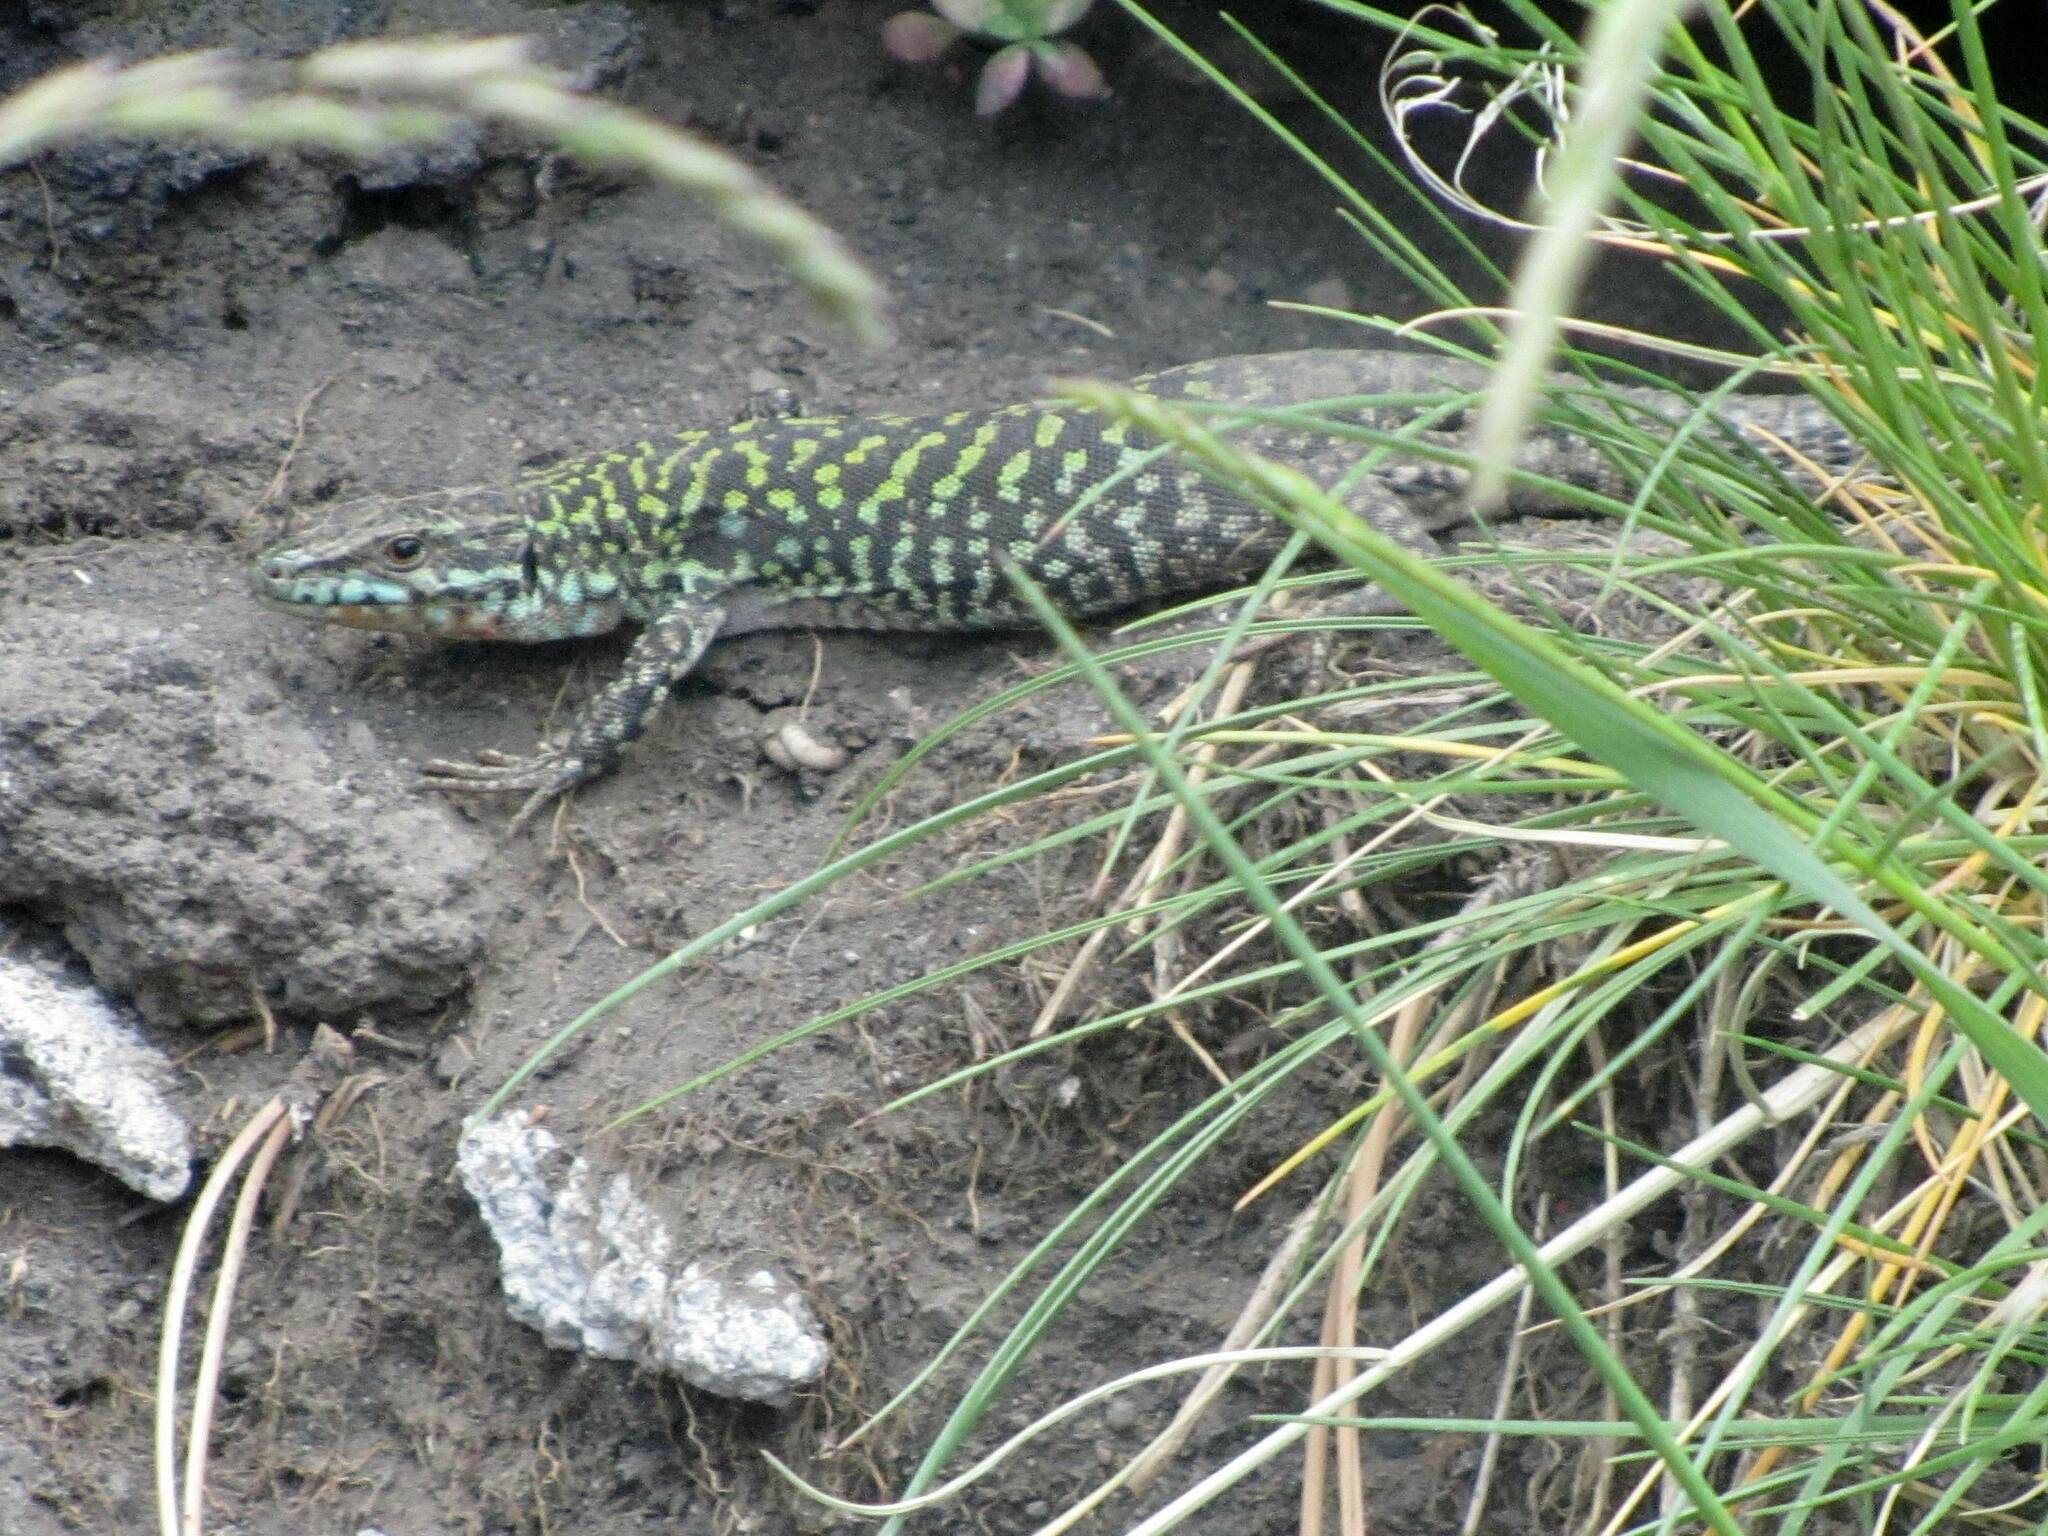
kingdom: Animalia
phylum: Chordata
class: Squamata
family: Lacertidae
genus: Podarcis
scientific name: Podarcis siculus
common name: Italian wall lizard
